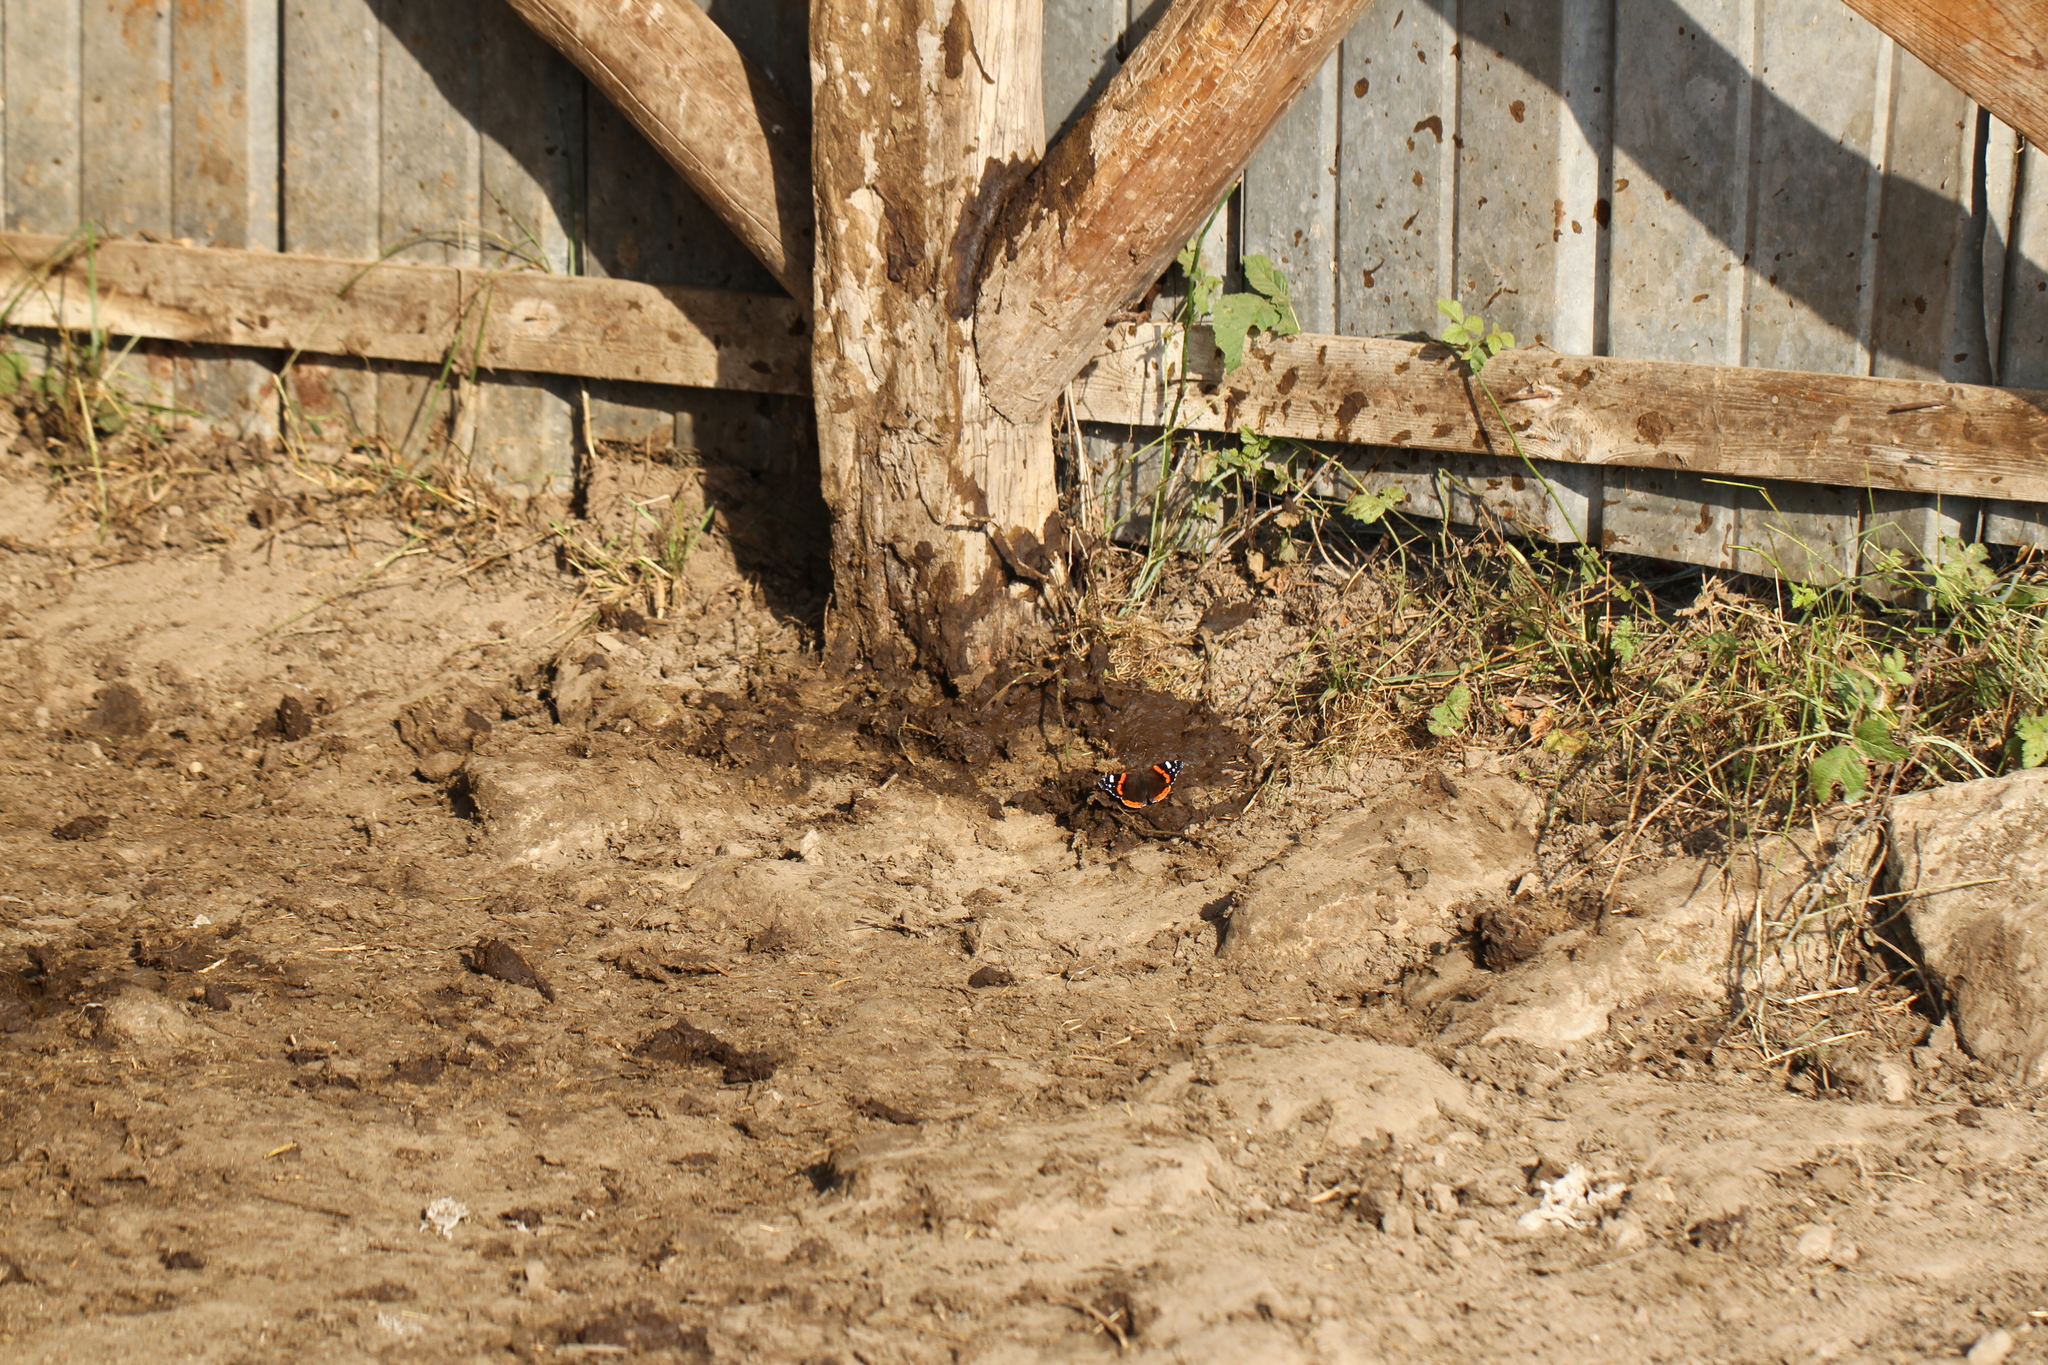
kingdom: Animalia
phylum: Arthropoda
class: Insecta
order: Lepidoptera
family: Nymphalidae
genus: Vanessa
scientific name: Vanessa atalanta
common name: Red admiral
